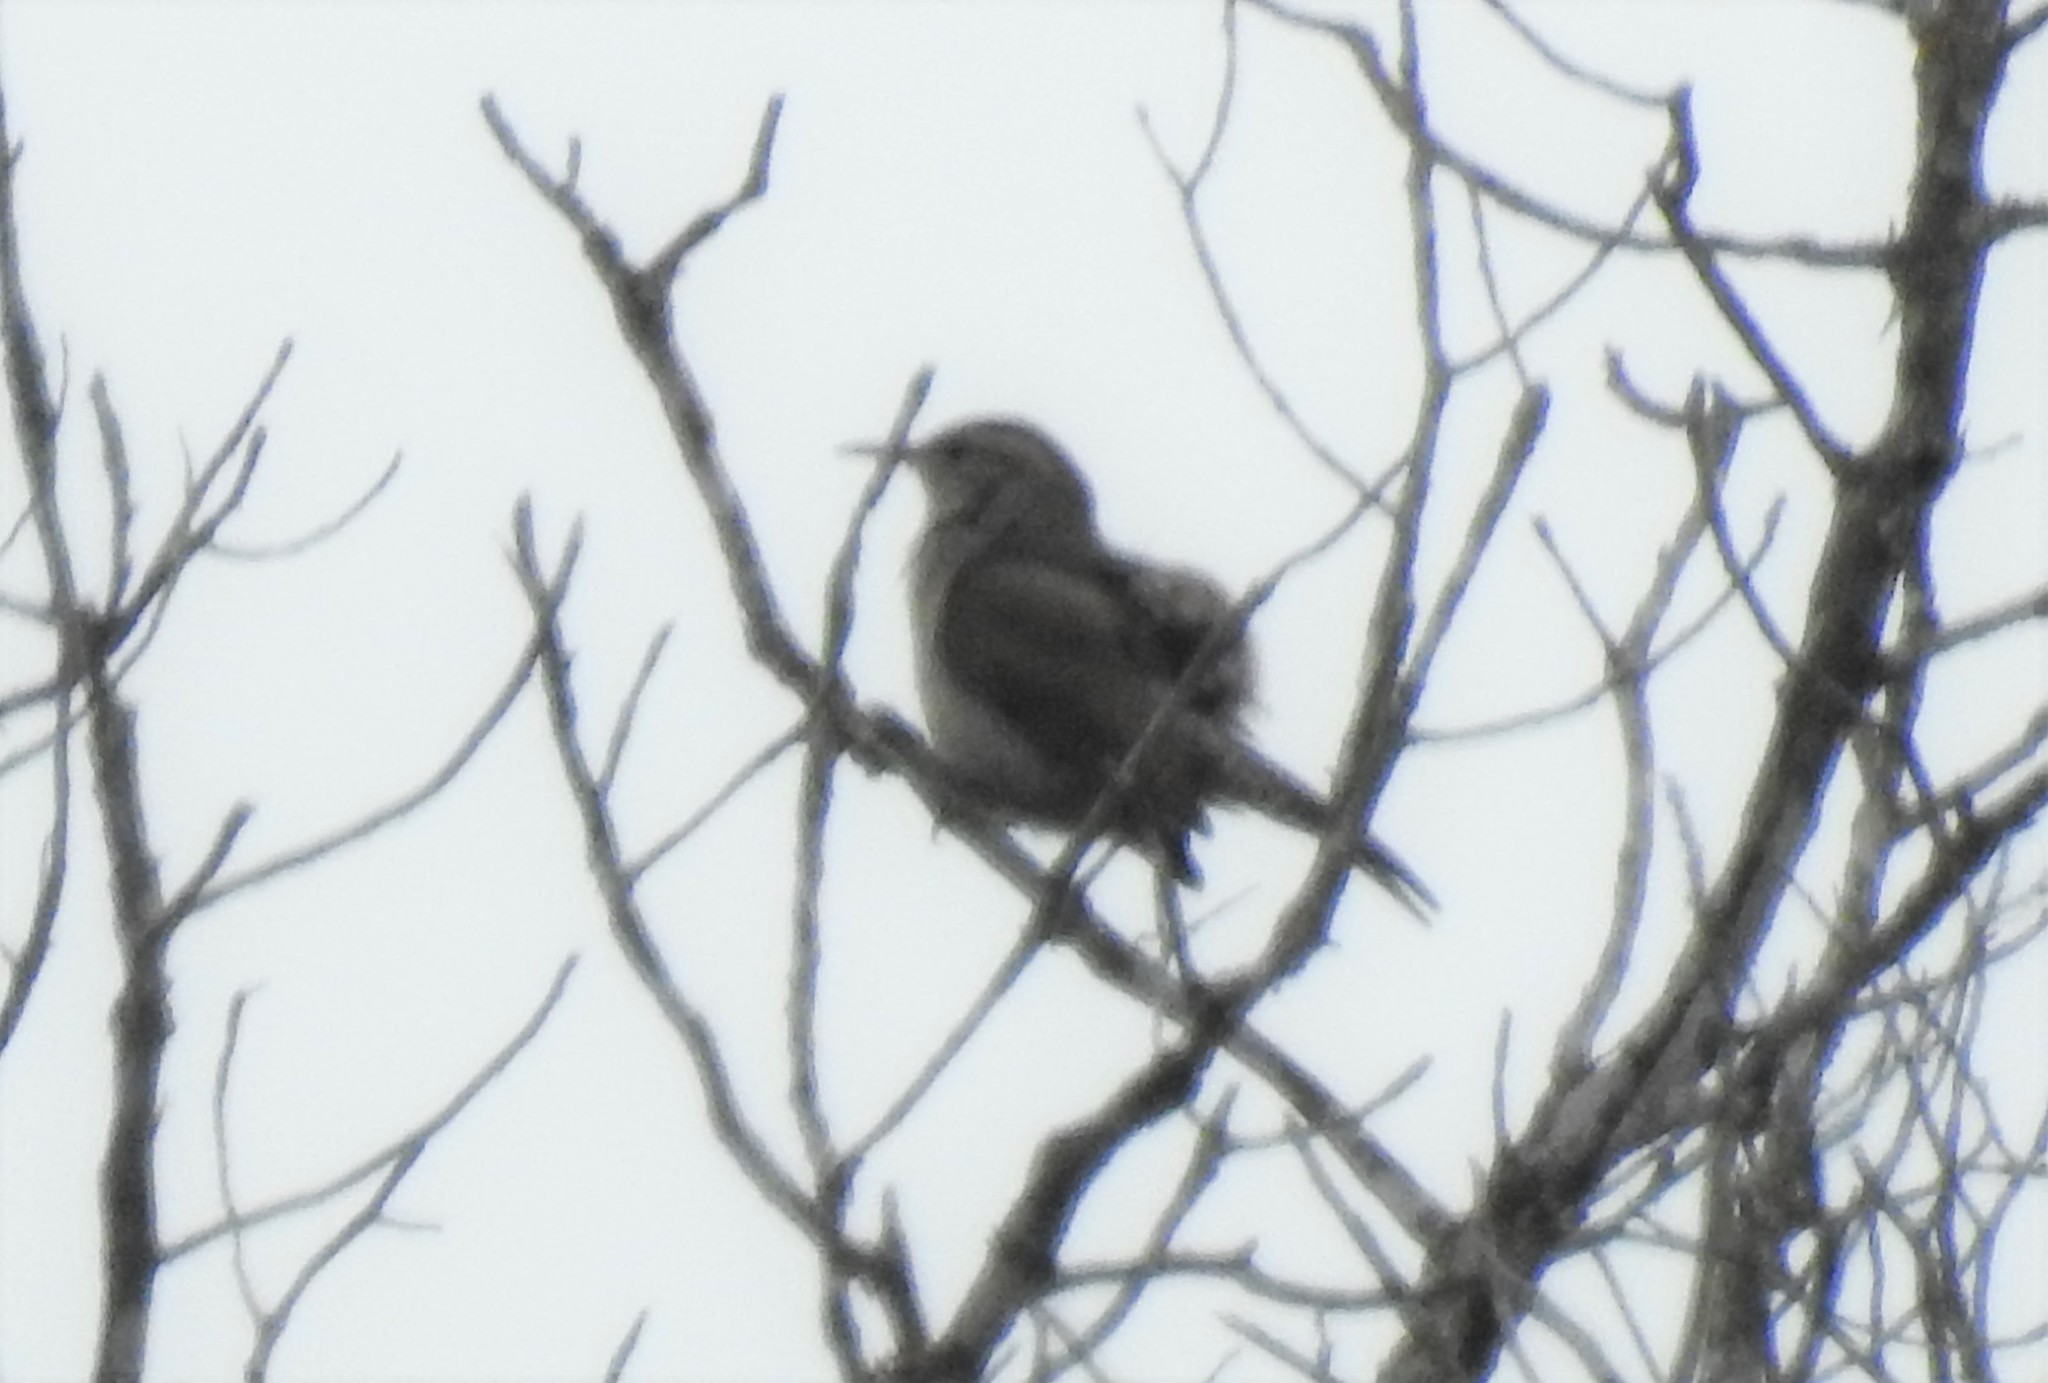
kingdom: Animalia
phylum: Chordata
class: Aves
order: Passeriformes
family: Troglodytidae
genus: Thryomanes
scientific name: Thryomanes bewickii
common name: Bewick's wren
